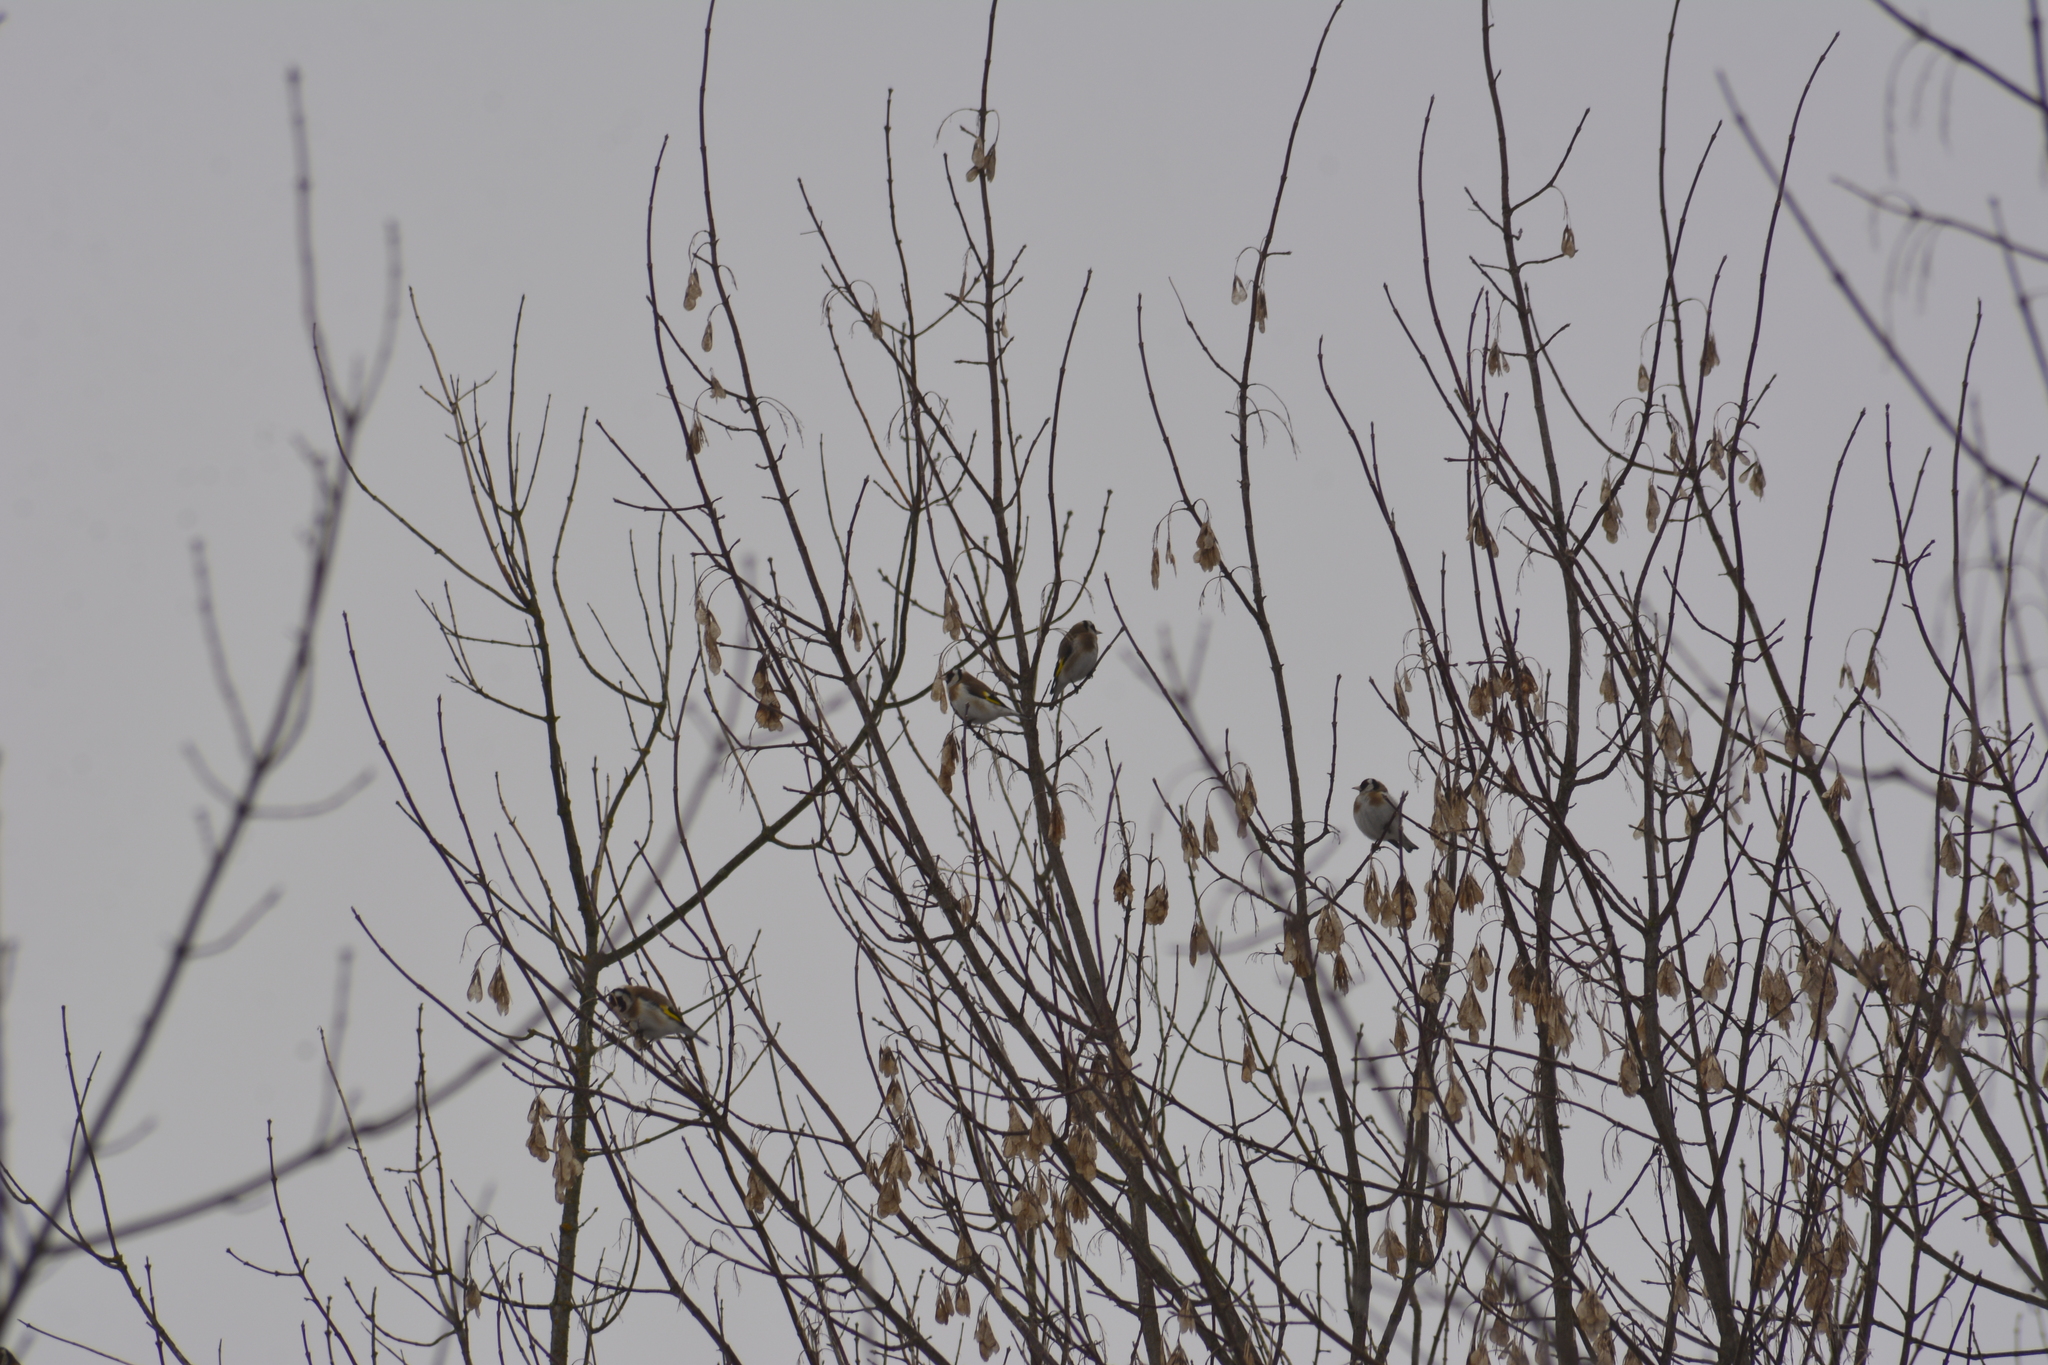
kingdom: Animalia
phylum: Chordata
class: Aves
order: Passeriformes
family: Fringillidae
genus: Carduelis
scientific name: Carduelis carduelis
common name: European goldfinch
